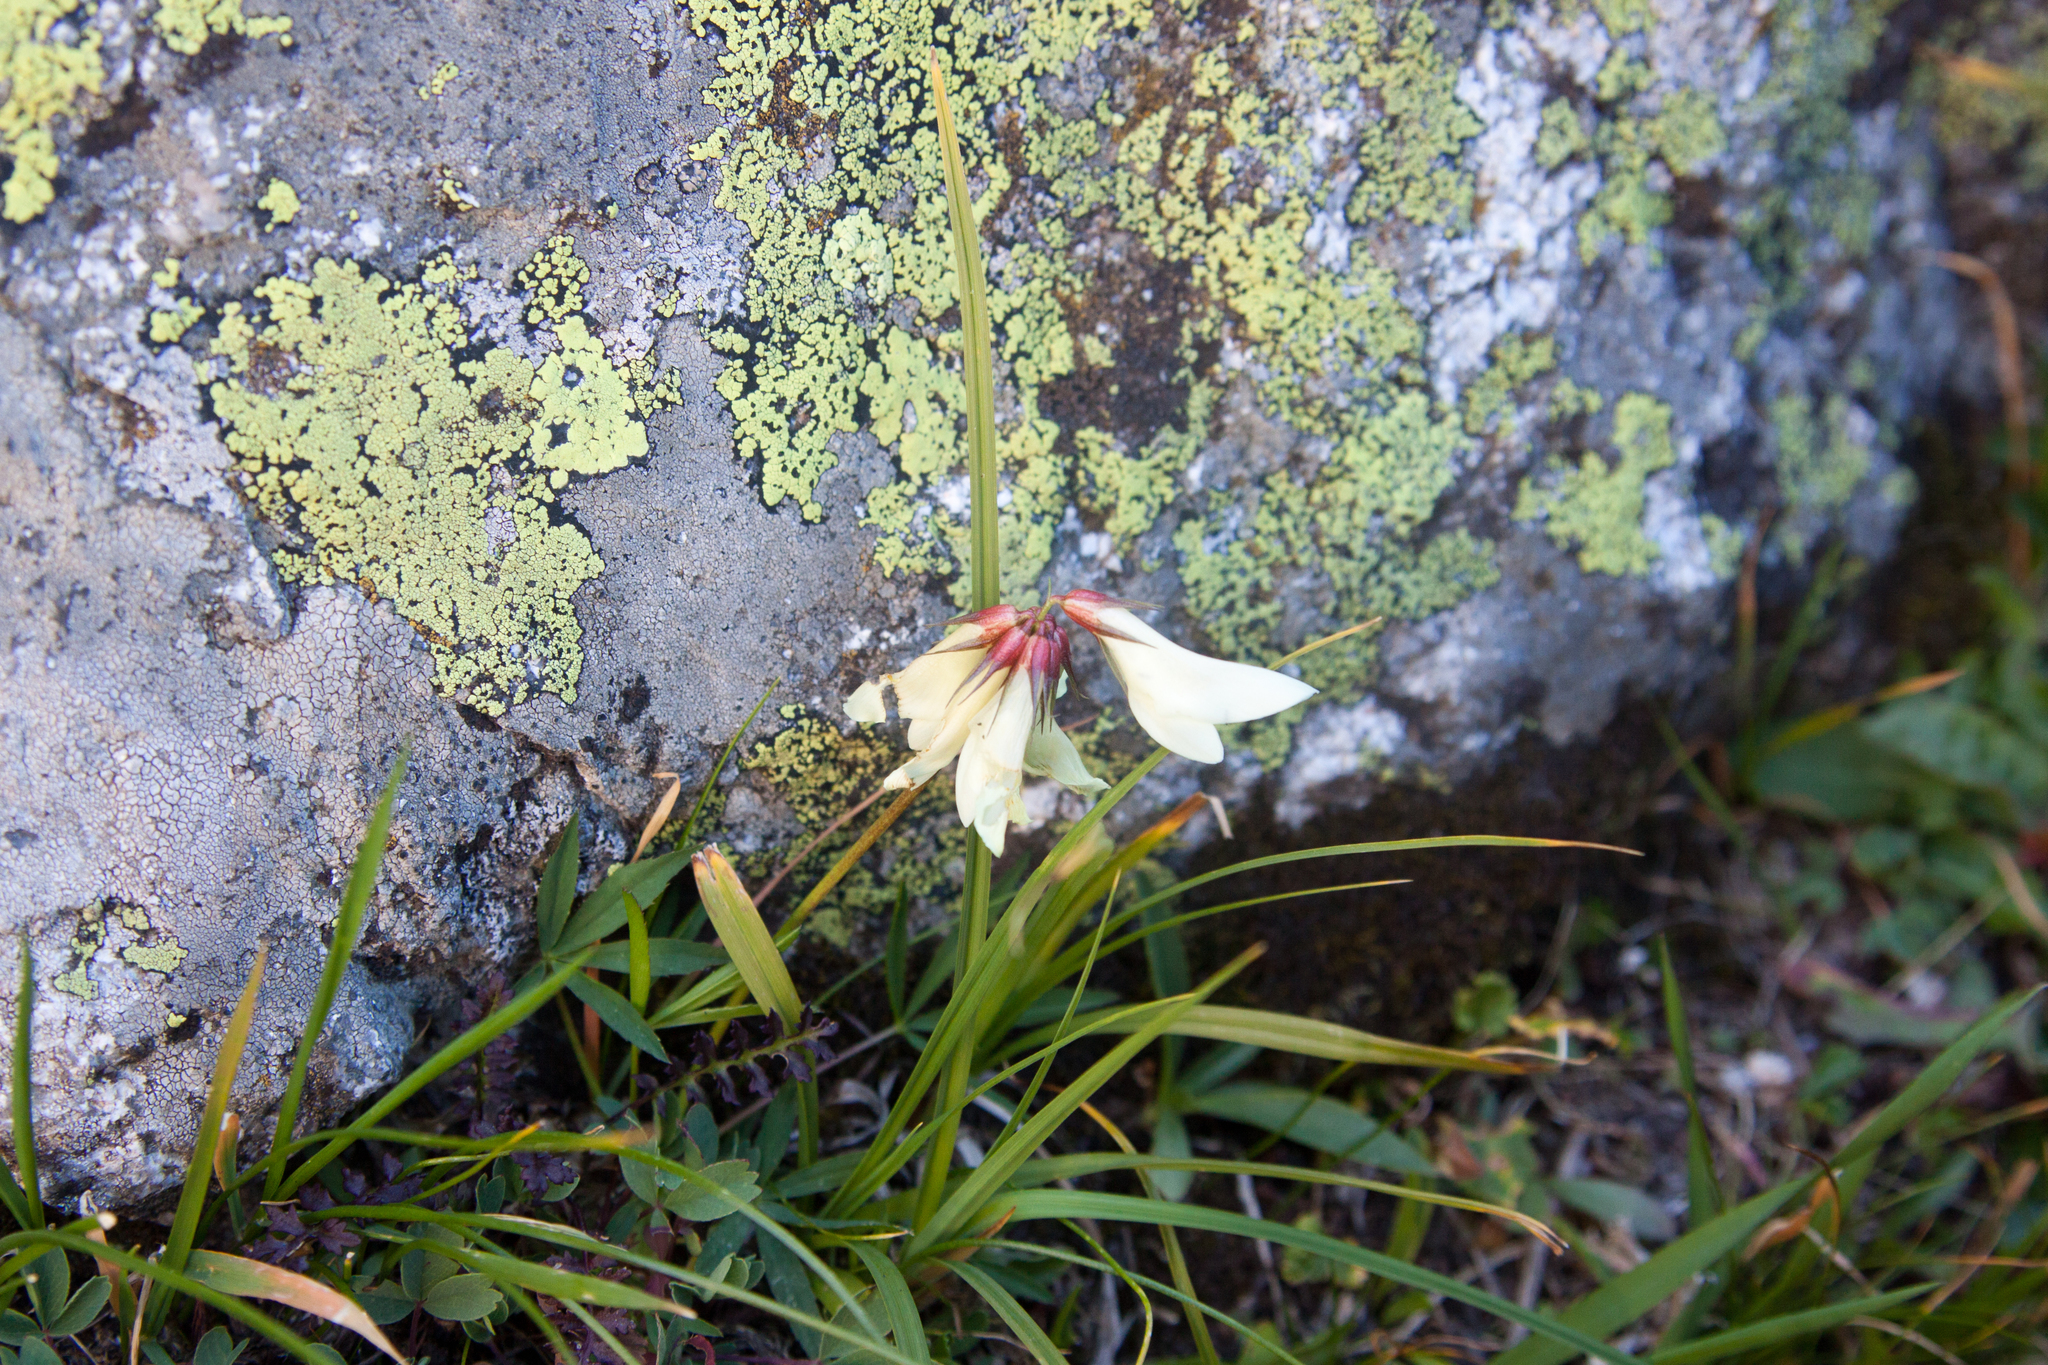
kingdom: Plantae
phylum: Tracheophyta
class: Magnoliopsida
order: Fabales
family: Fabaceae
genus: Trifolium
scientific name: Trifolium polyphyllum
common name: Many-leaf clover
